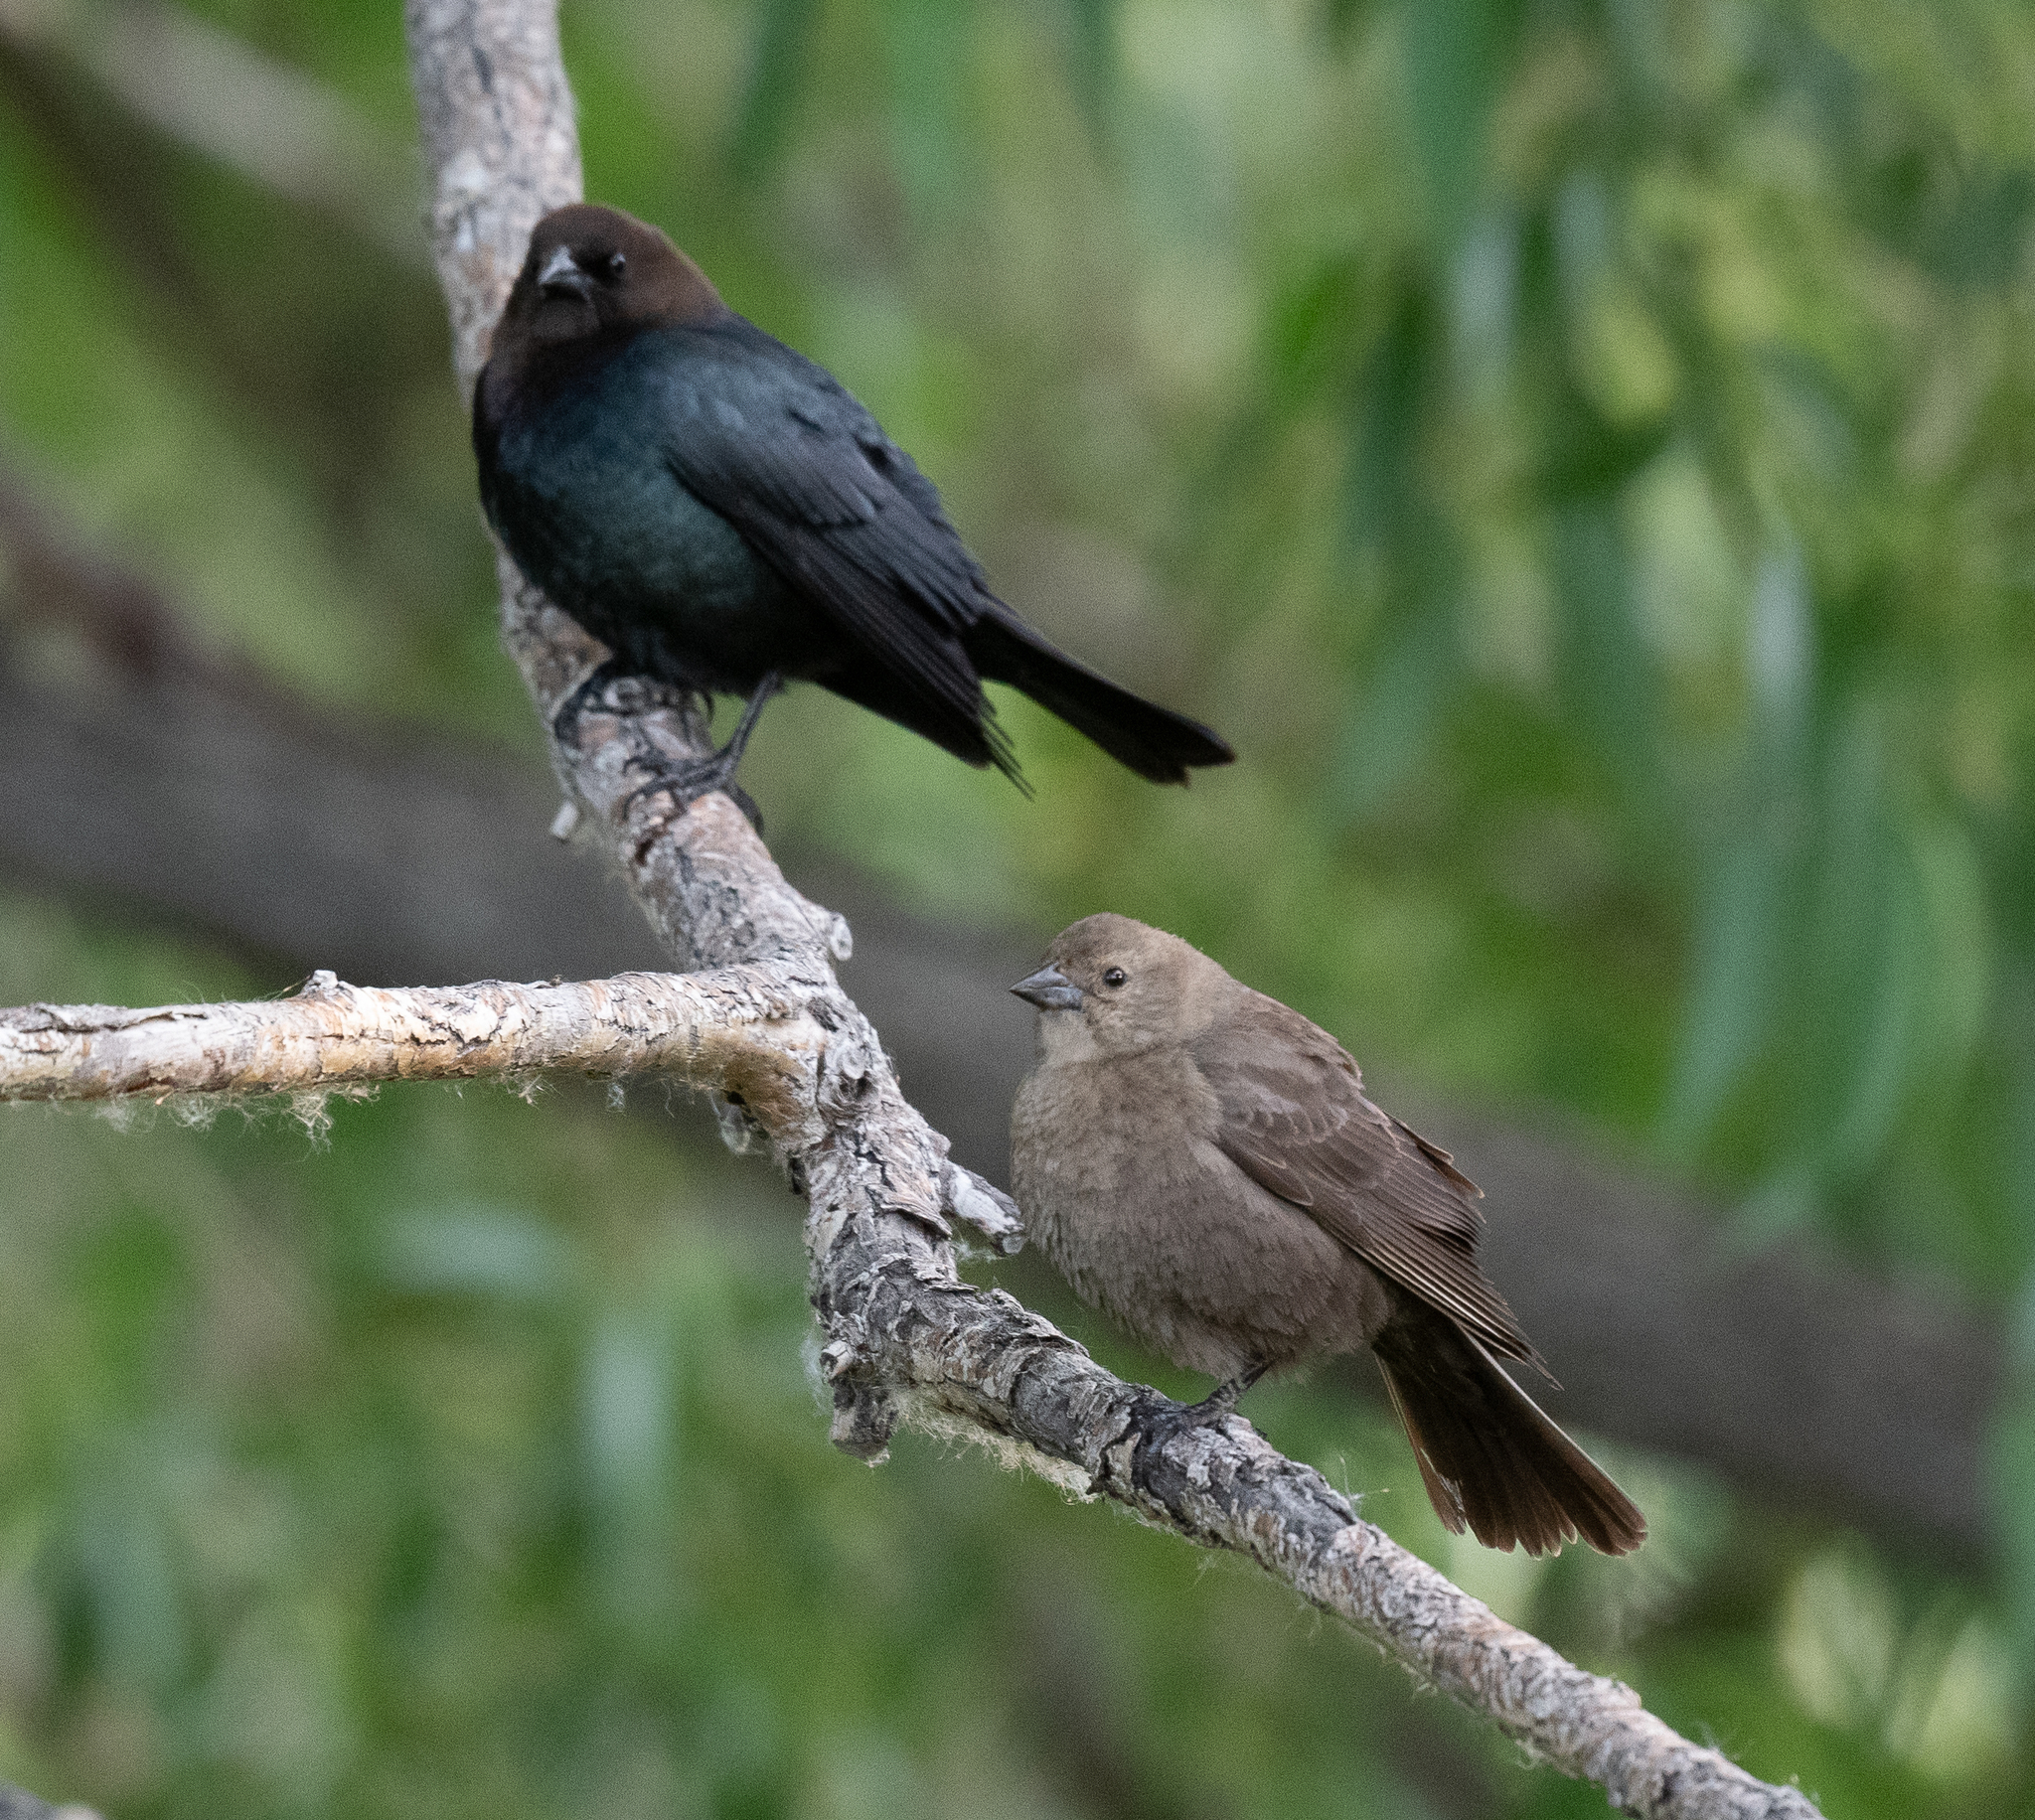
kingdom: Animalia
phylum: Chordata
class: Aves
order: Passeriformes
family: Icteridae
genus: Molothrus
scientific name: Molothrus ater
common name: Brown-headed cowbird
